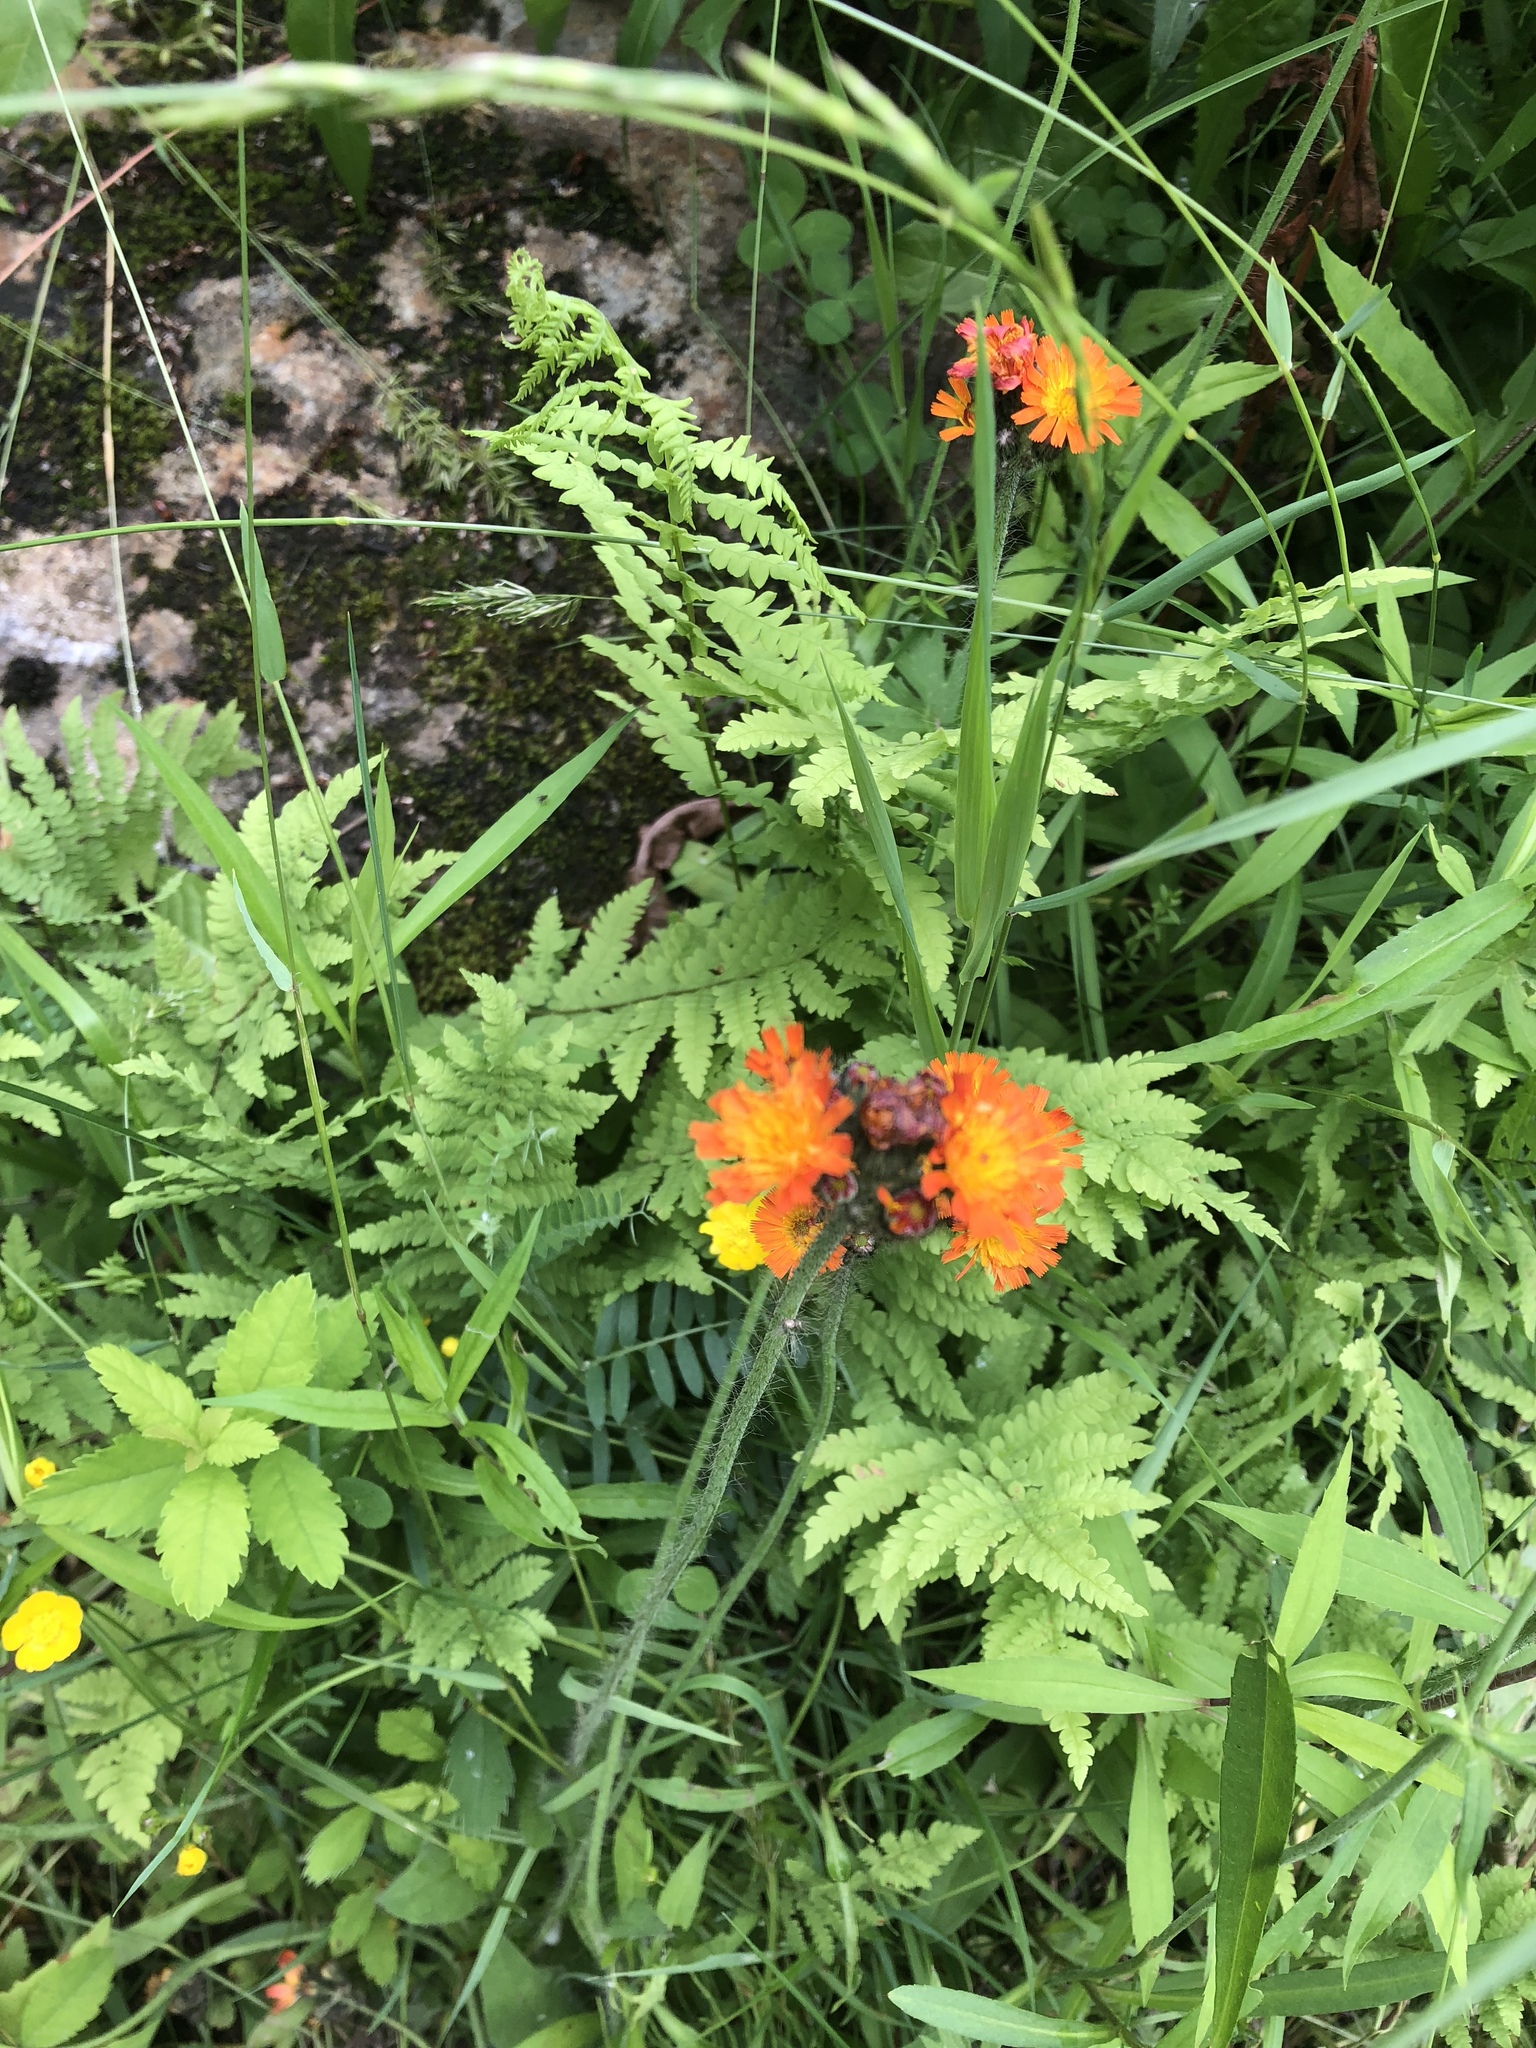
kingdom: Plantae
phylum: Tracheophyta
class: Magnoliopsida
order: Asterales
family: Asteraceae
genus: Pilosella
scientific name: Pilosella aurantiaca
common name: Fox-and-cubs
